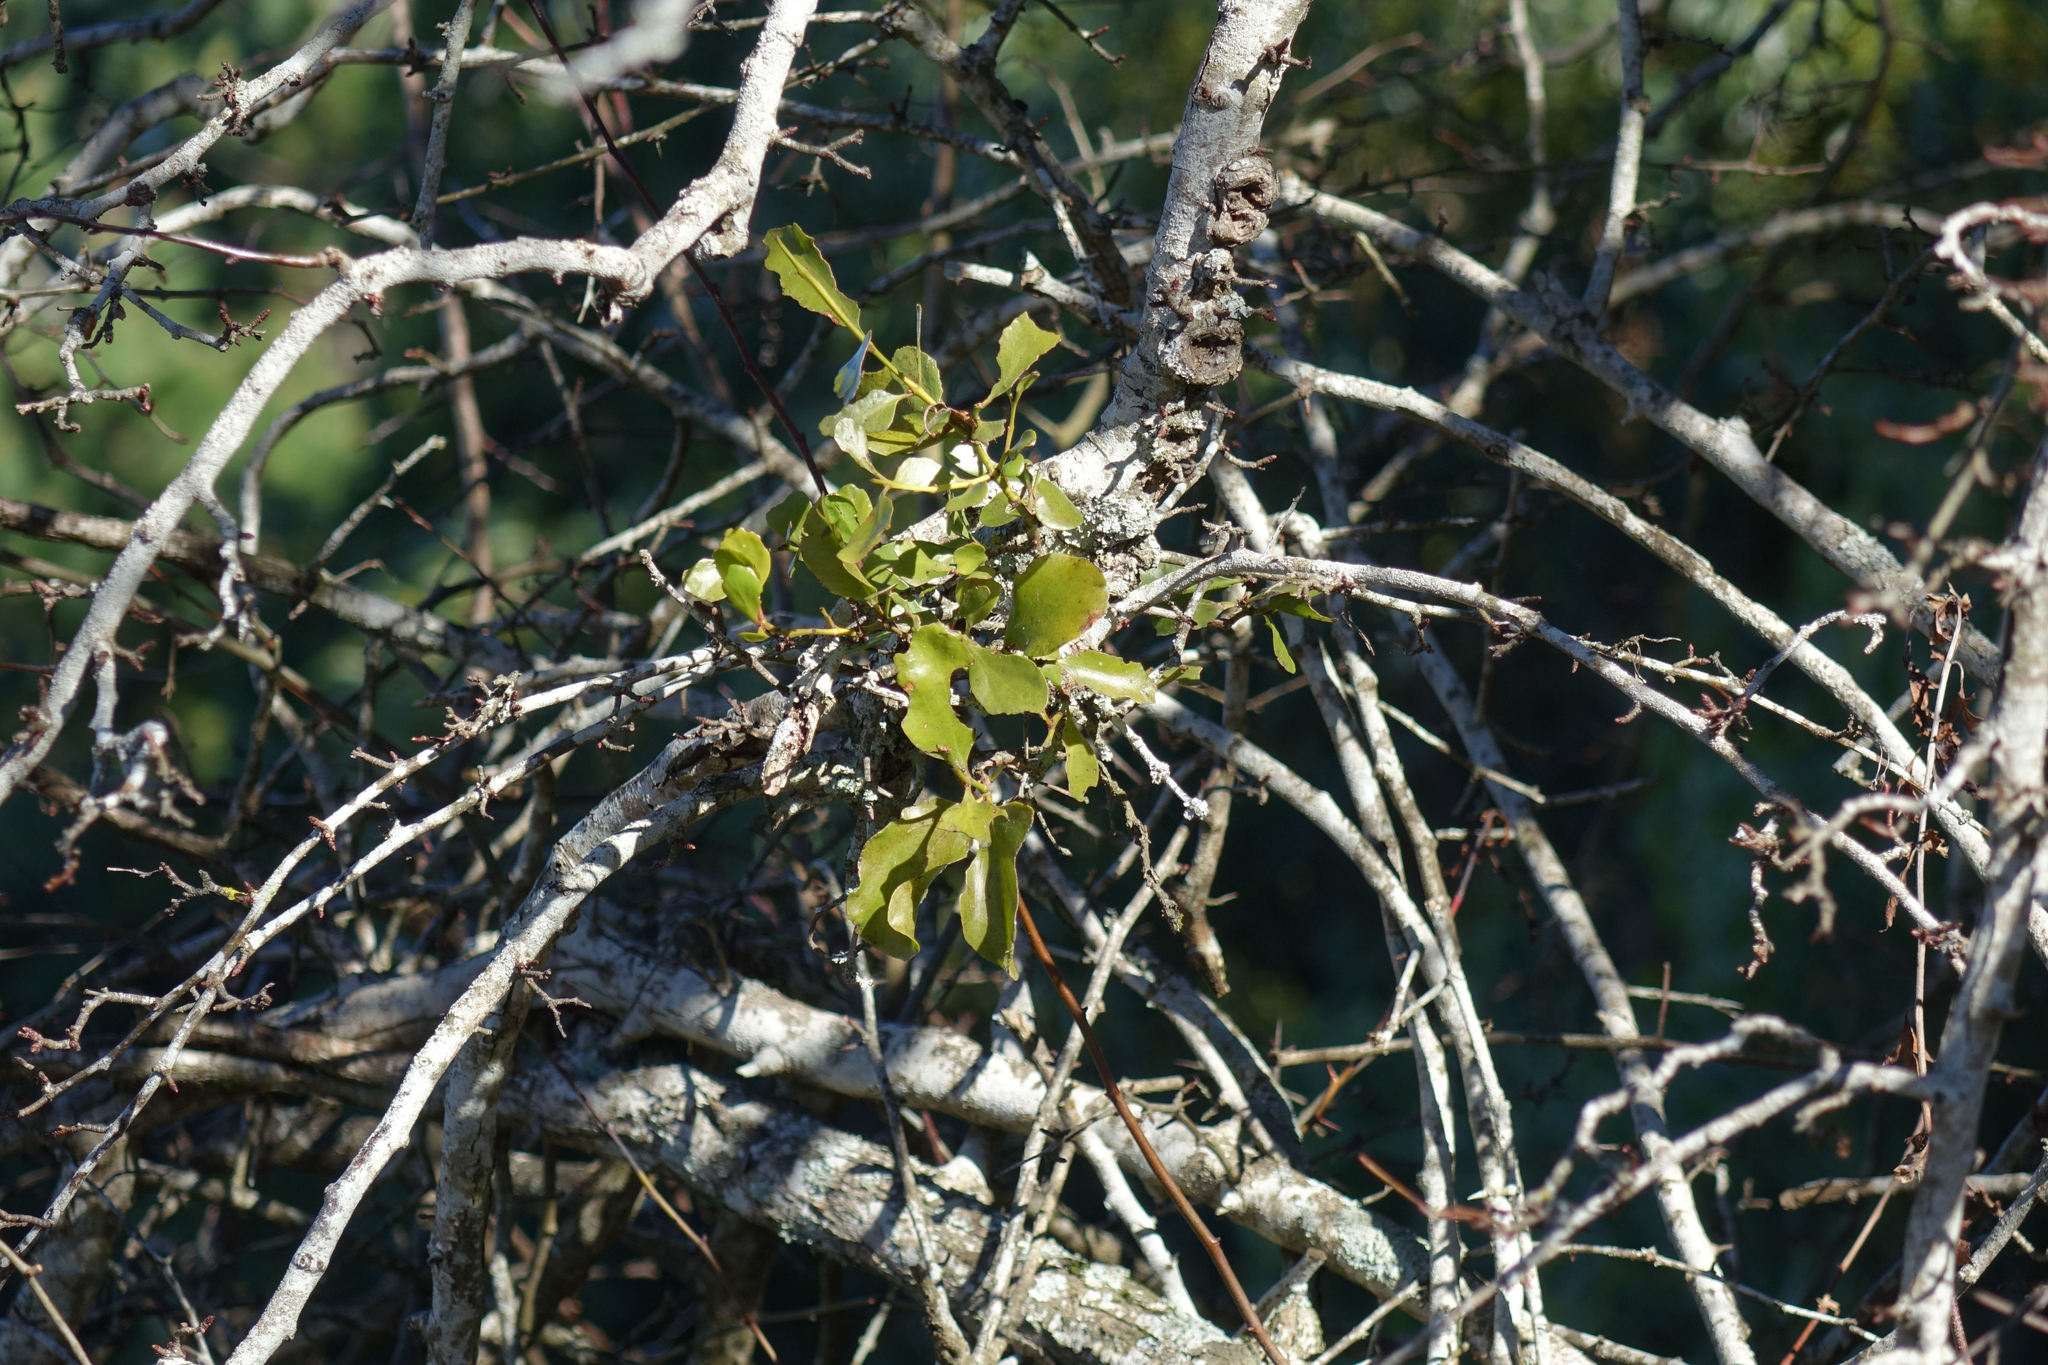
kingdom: Plantae
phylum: Tracheophyta
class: Magnoliopsida
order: Santalales
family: Loranthaceae
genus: Ileostylus
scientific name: Ileostylus micranthus
